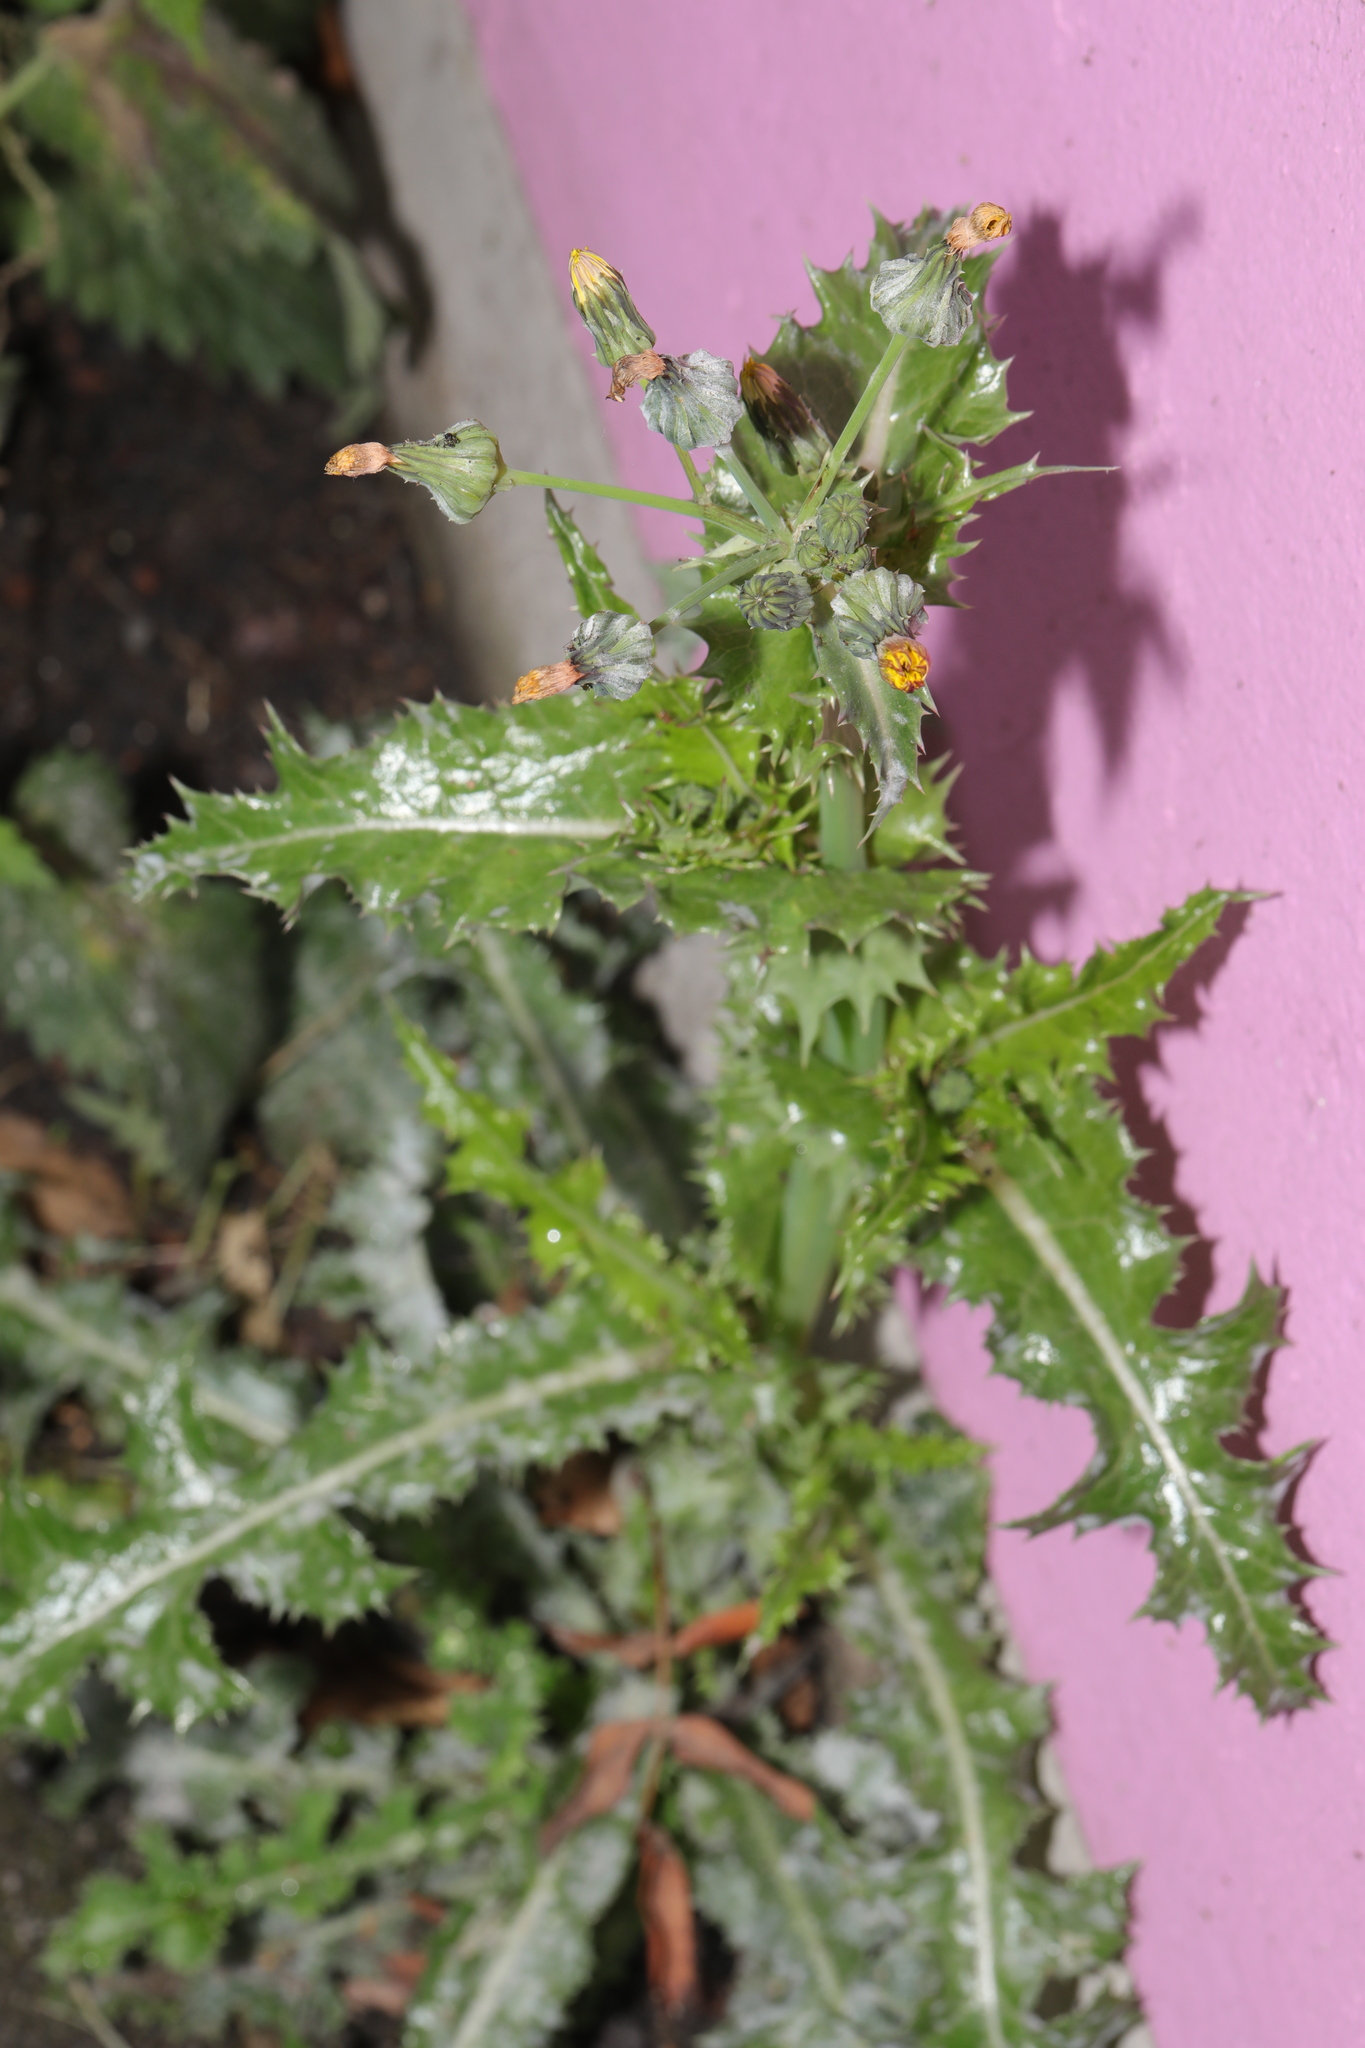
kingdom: Plantae
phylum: Tracheophyta
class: Magnoliopsida
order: Asterales
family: Asteraceae
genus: Sonchus
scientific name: Sonchus asper
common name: Prickly sow-thistle
